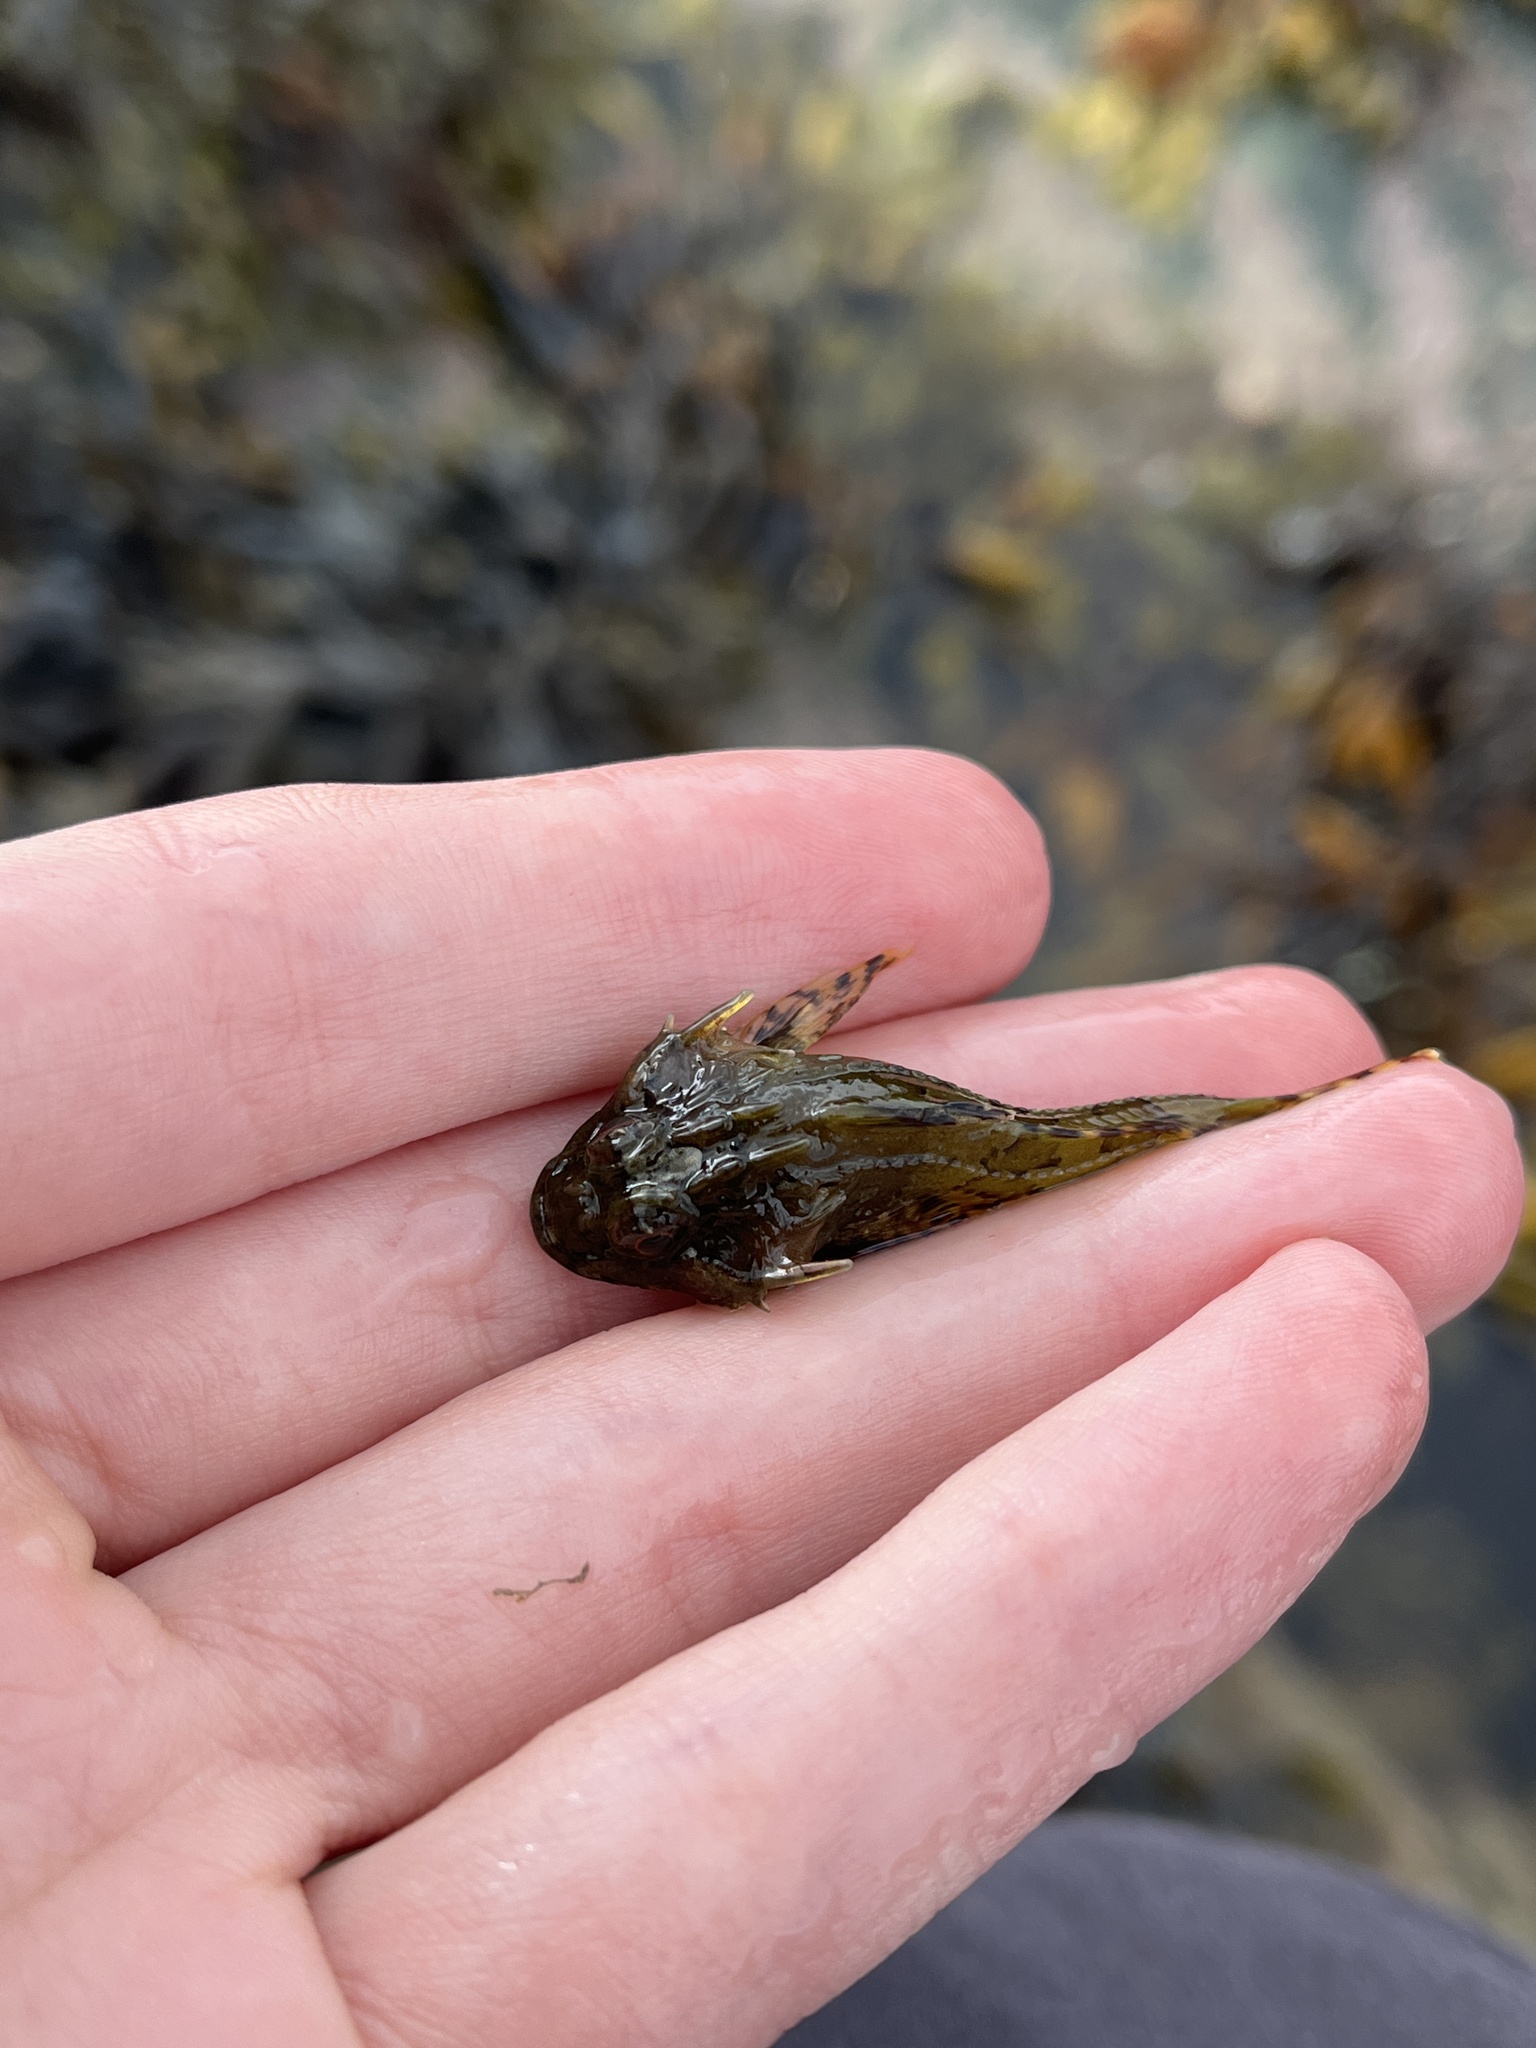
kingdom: Animalia
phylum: Chordata
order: Scorpaeniformes
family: Cottidae
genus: Taurulus
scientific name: Taurulus bubalis
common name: Sea scorpion
